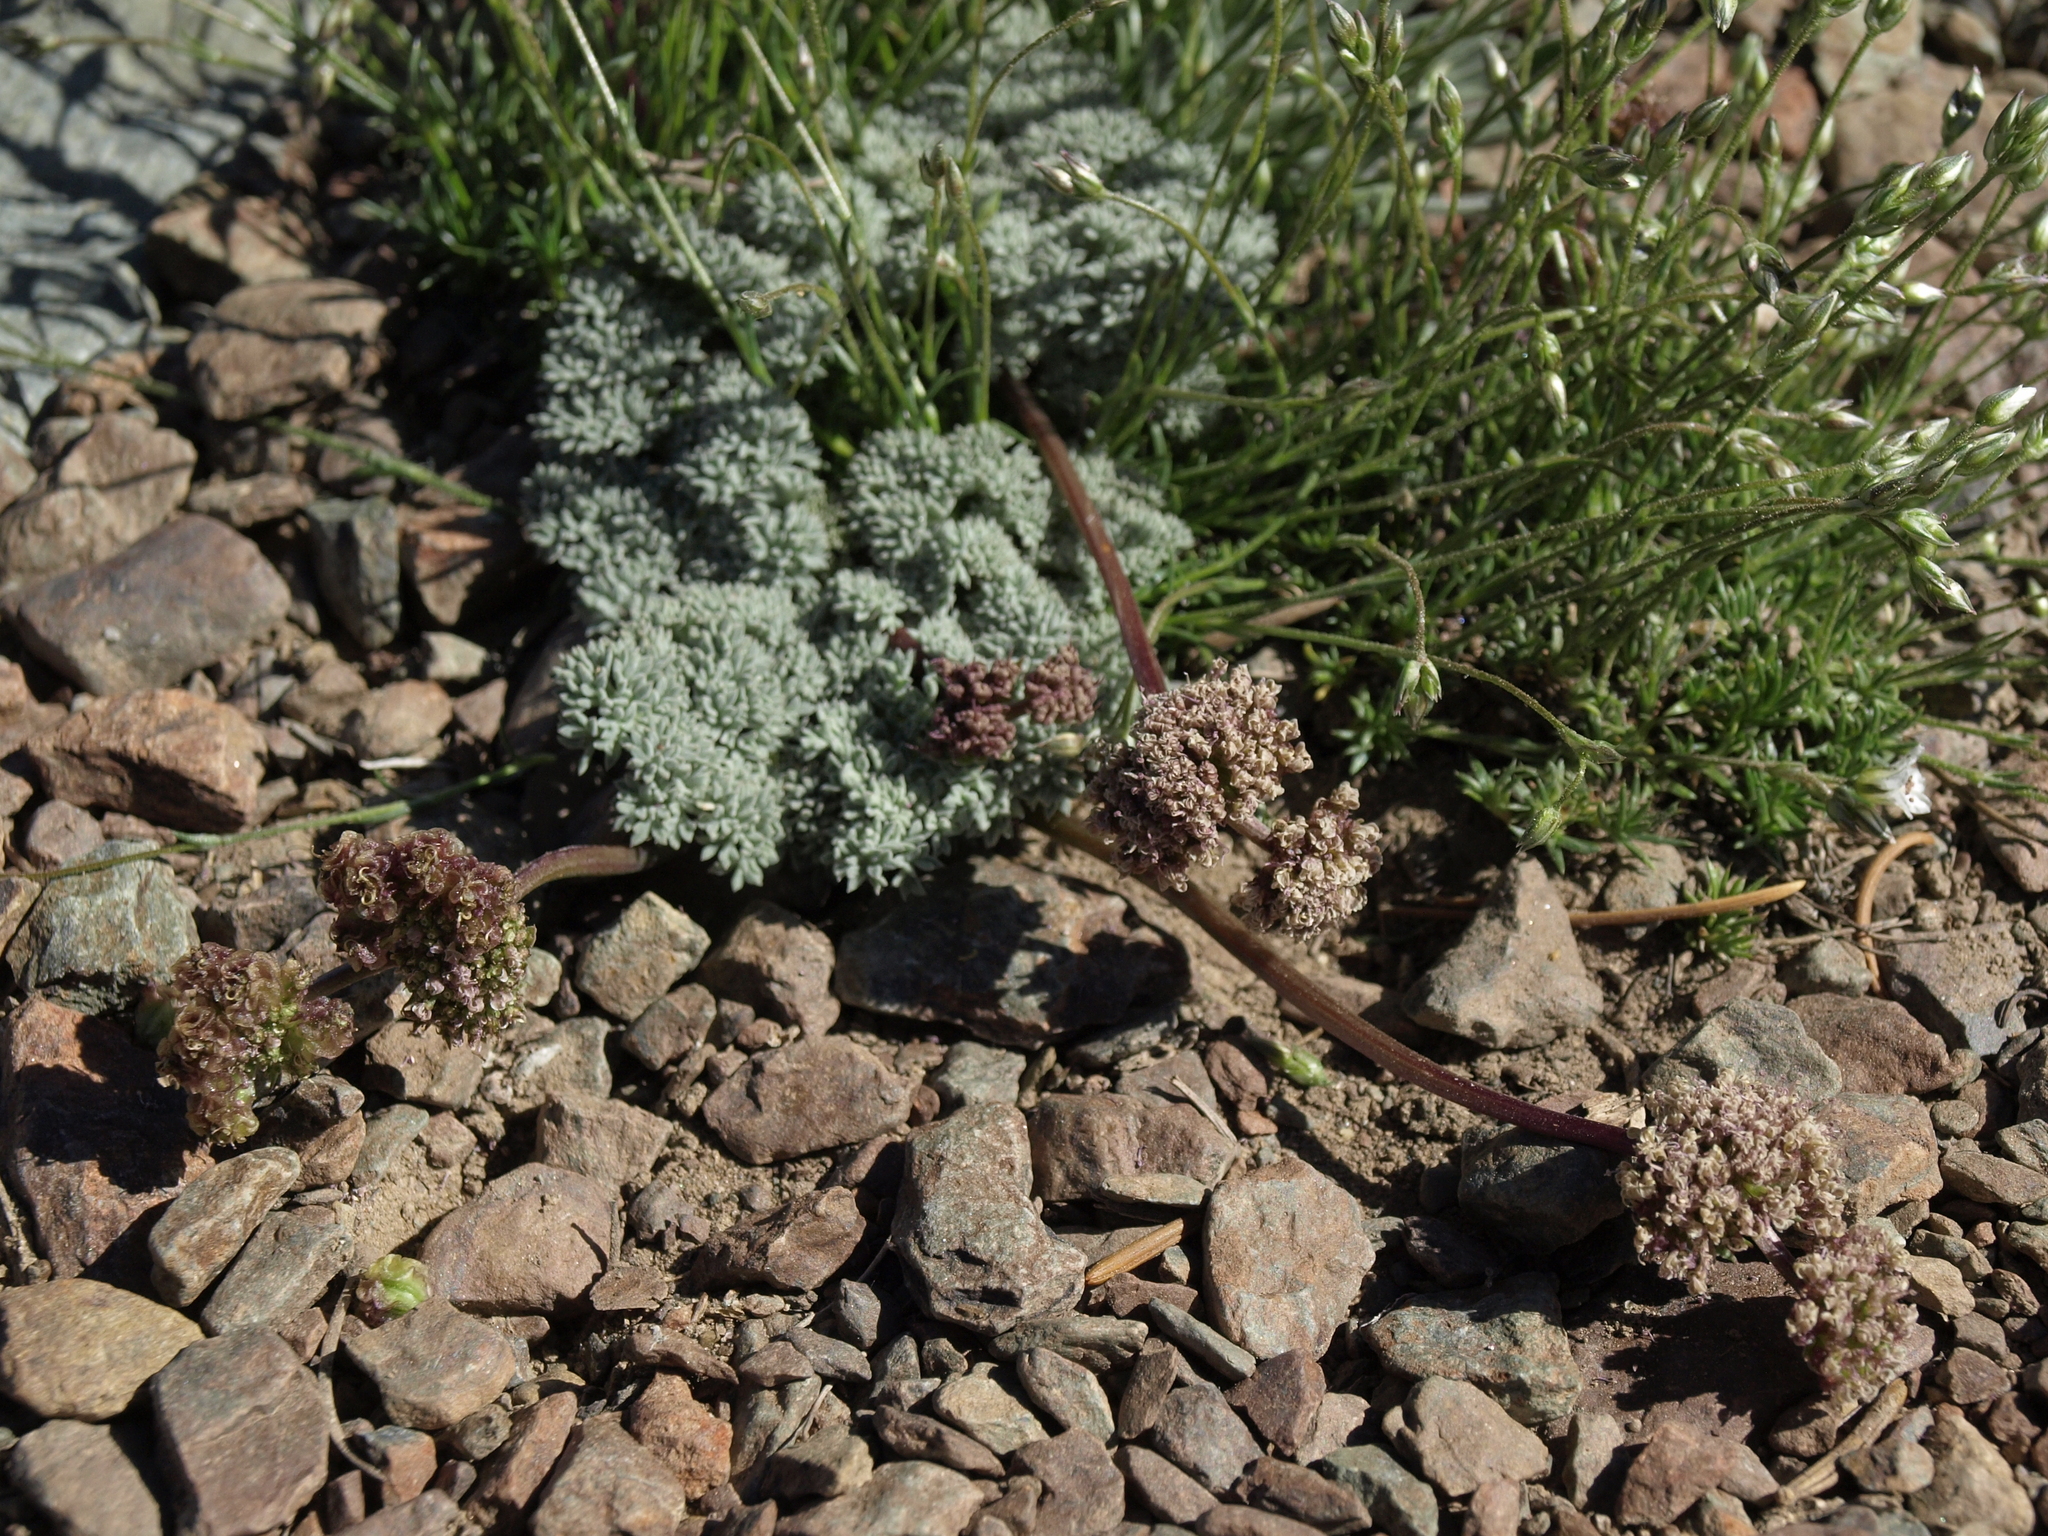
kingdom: Plantae
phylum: Tracheophyta
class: Magnoliopsida
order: Apiales
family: Apiaceae
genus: Aulospermum
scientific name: Aulospermum cinerarium
